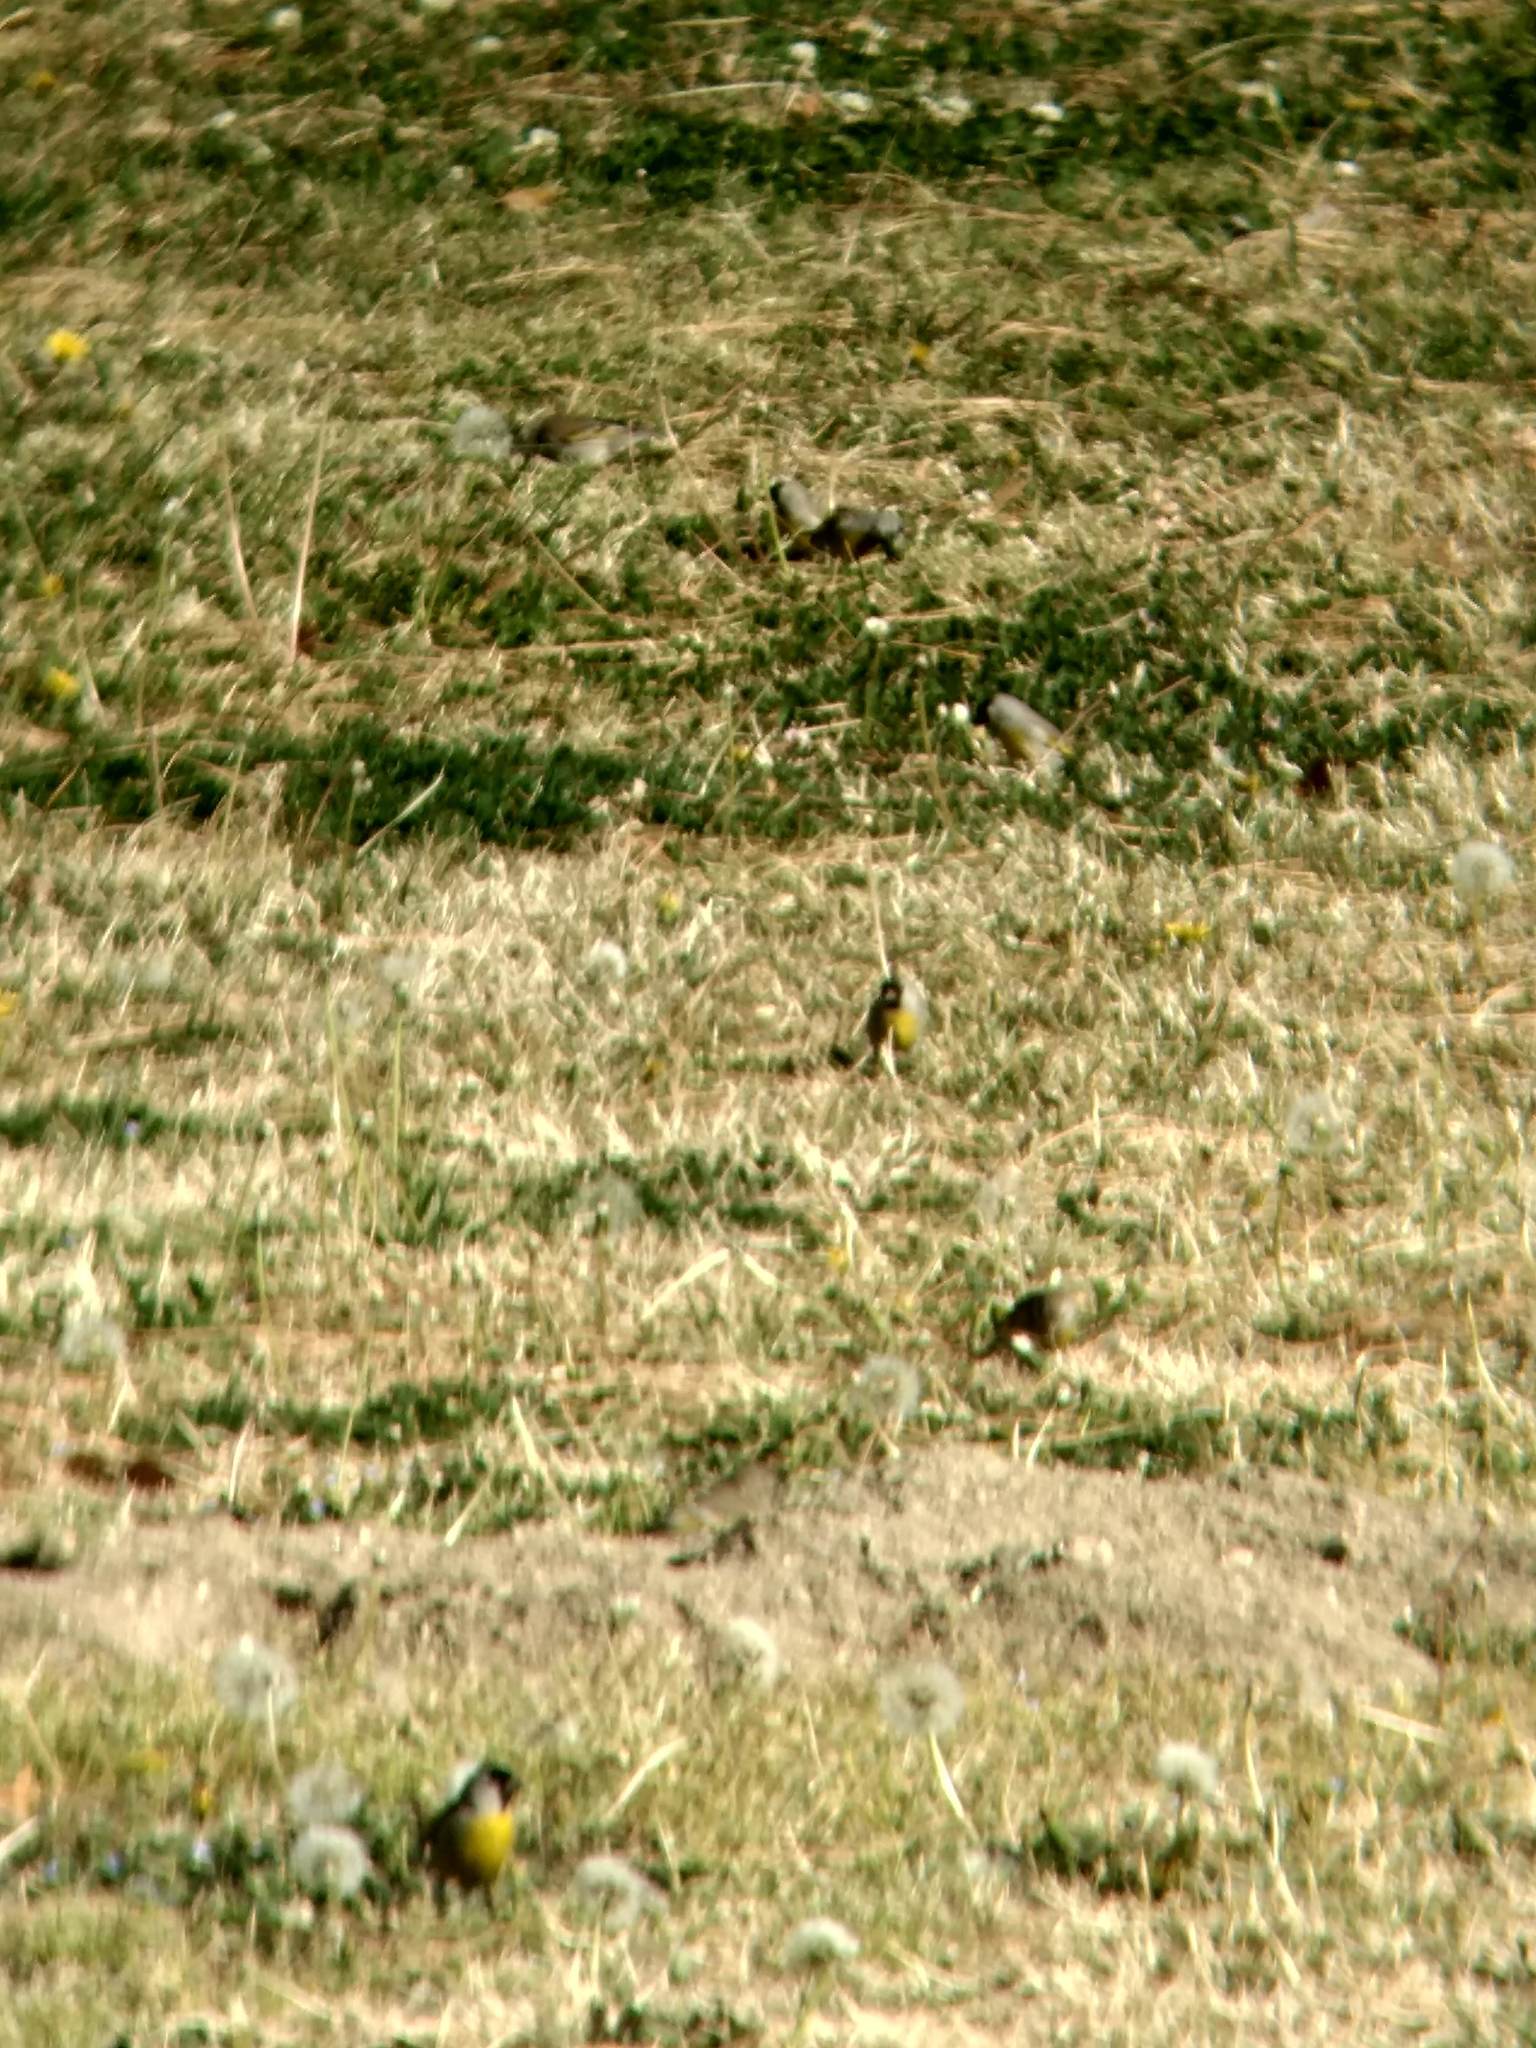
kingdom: Animalia
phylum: Chordata
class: Aves
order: Passeriformes
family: Fringillidae
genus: Spinus
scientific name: Spinus lawrencei
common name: Lawrence's goldfinch
